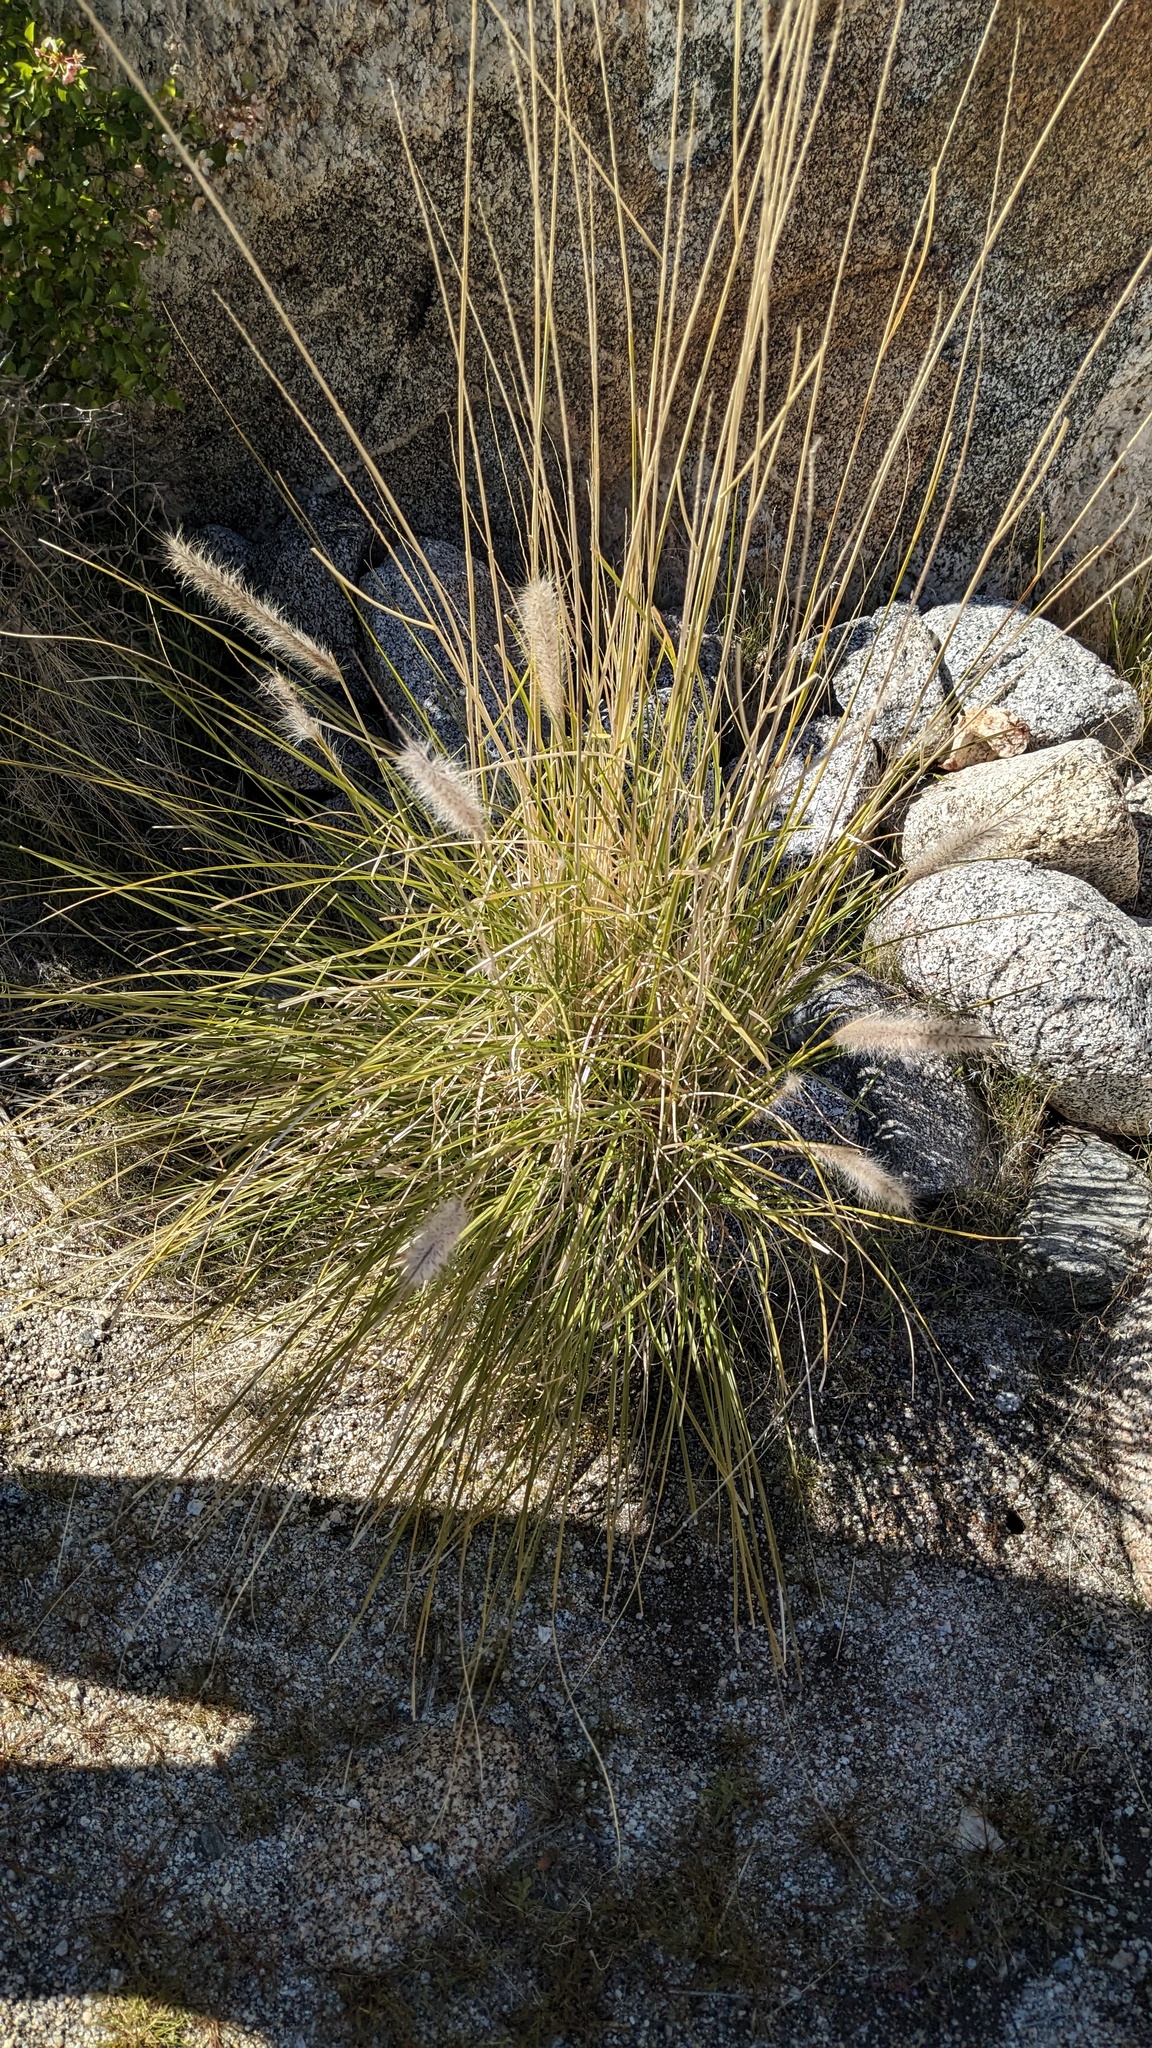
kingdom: Plantae
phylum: Tracheophyta
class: Liliopsida
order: Poales
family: Poaceae
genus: Cenchrus
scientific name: Cenchrus setaceus
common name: Crimson fountaingrass
